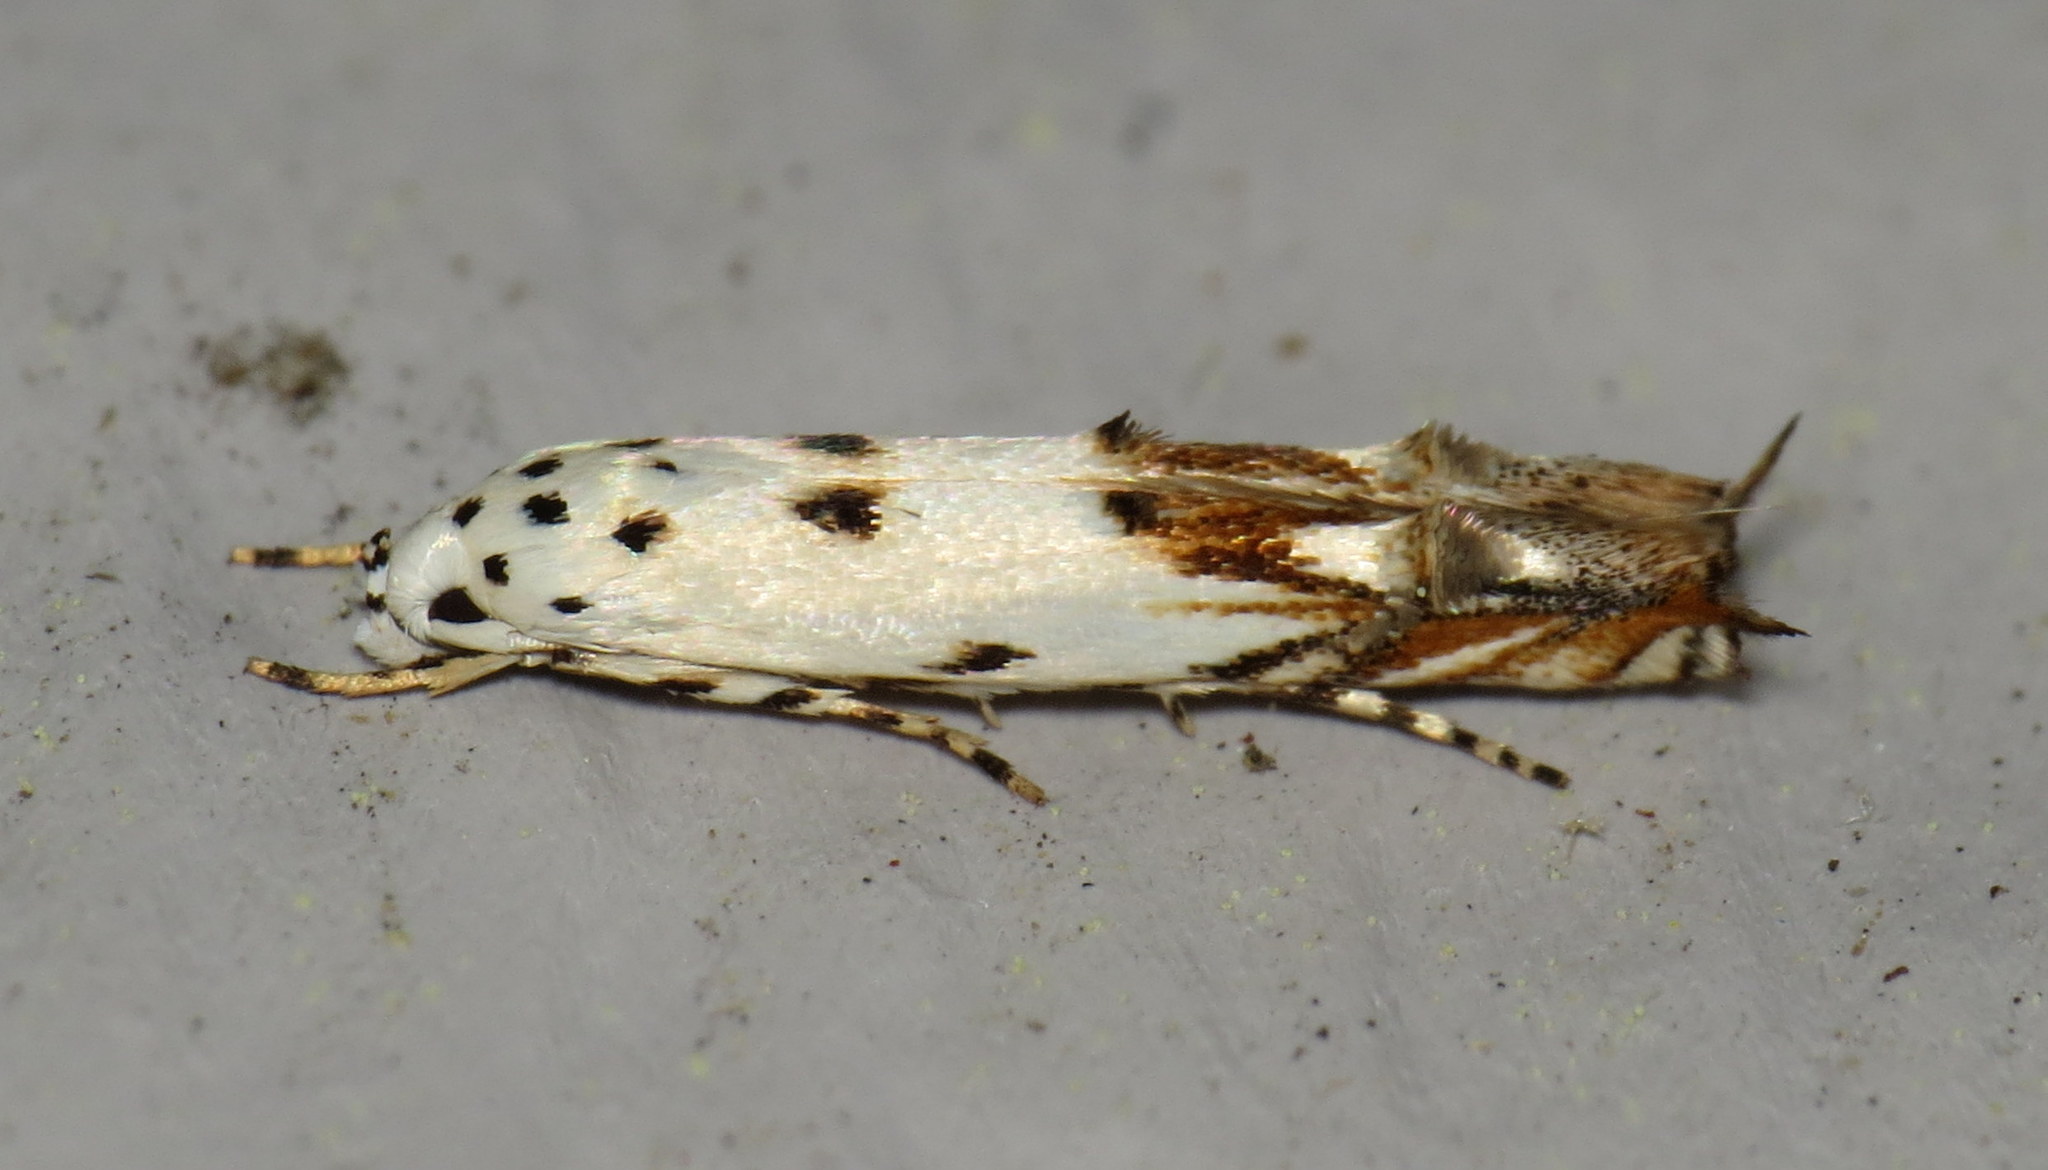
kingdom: Animalia
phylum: Arthropoda
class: Insecta
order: Lepidoptera
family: Momphidae
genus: Mompha
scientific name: Mompha eloisella
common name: Red-streaked mompha moth
